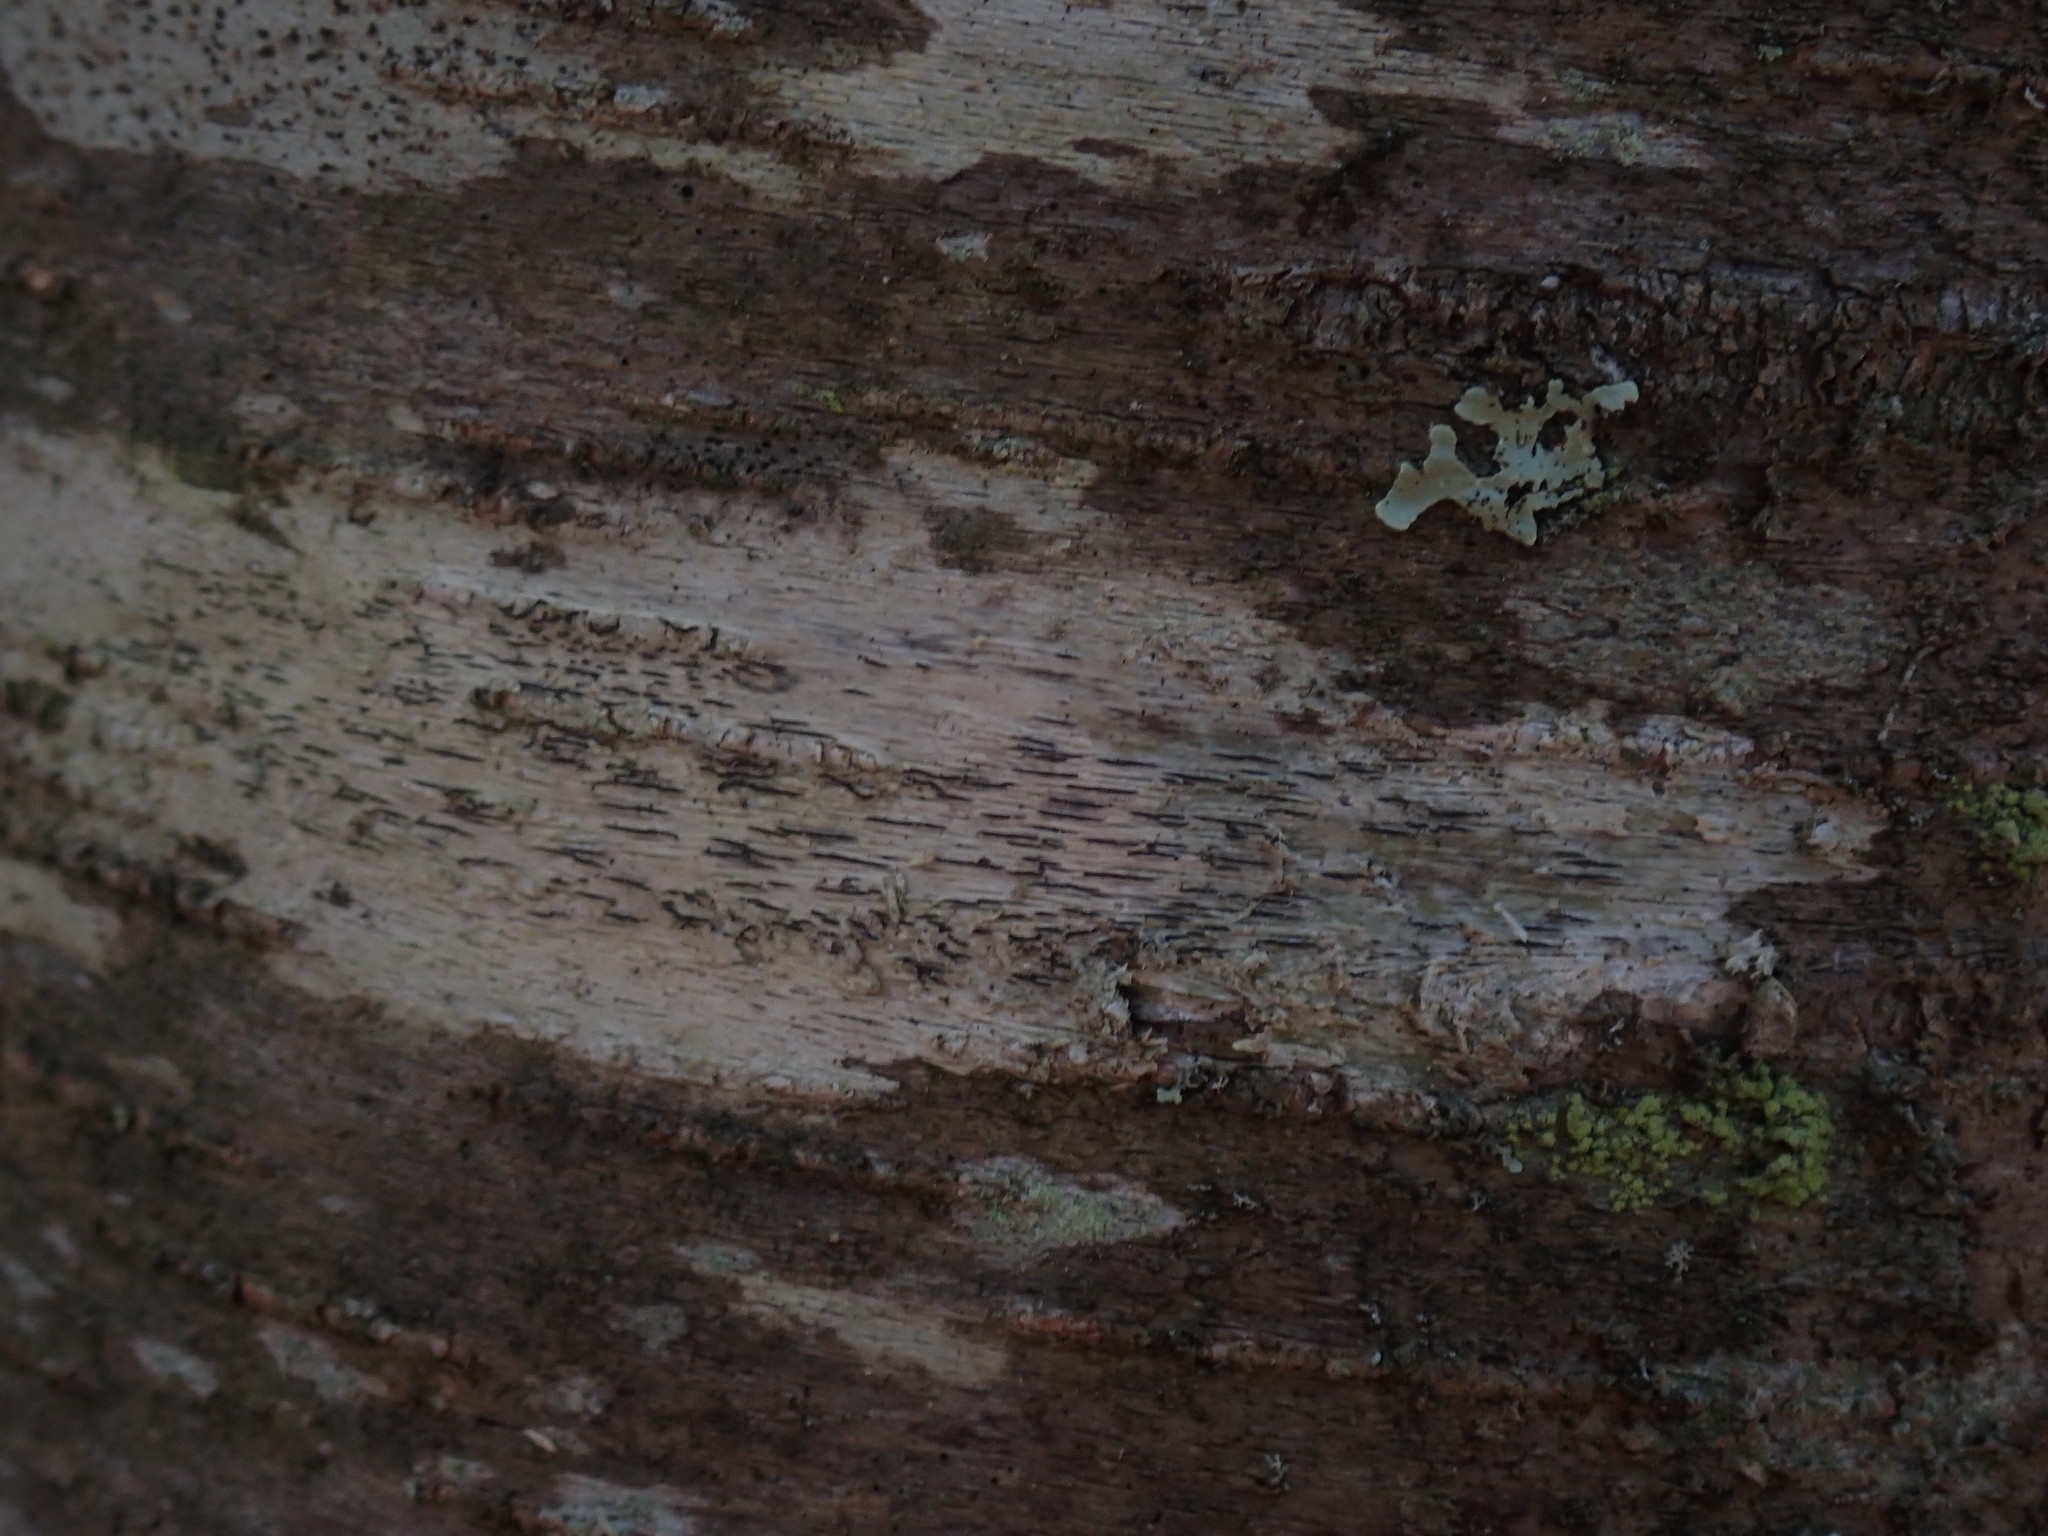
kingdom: Fungi
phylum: Ascomycota
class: Lecanoromycetes
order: Ostropales
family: Graphidaceae
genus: Graphis
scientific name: Graphis scripta
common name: Script lichen
